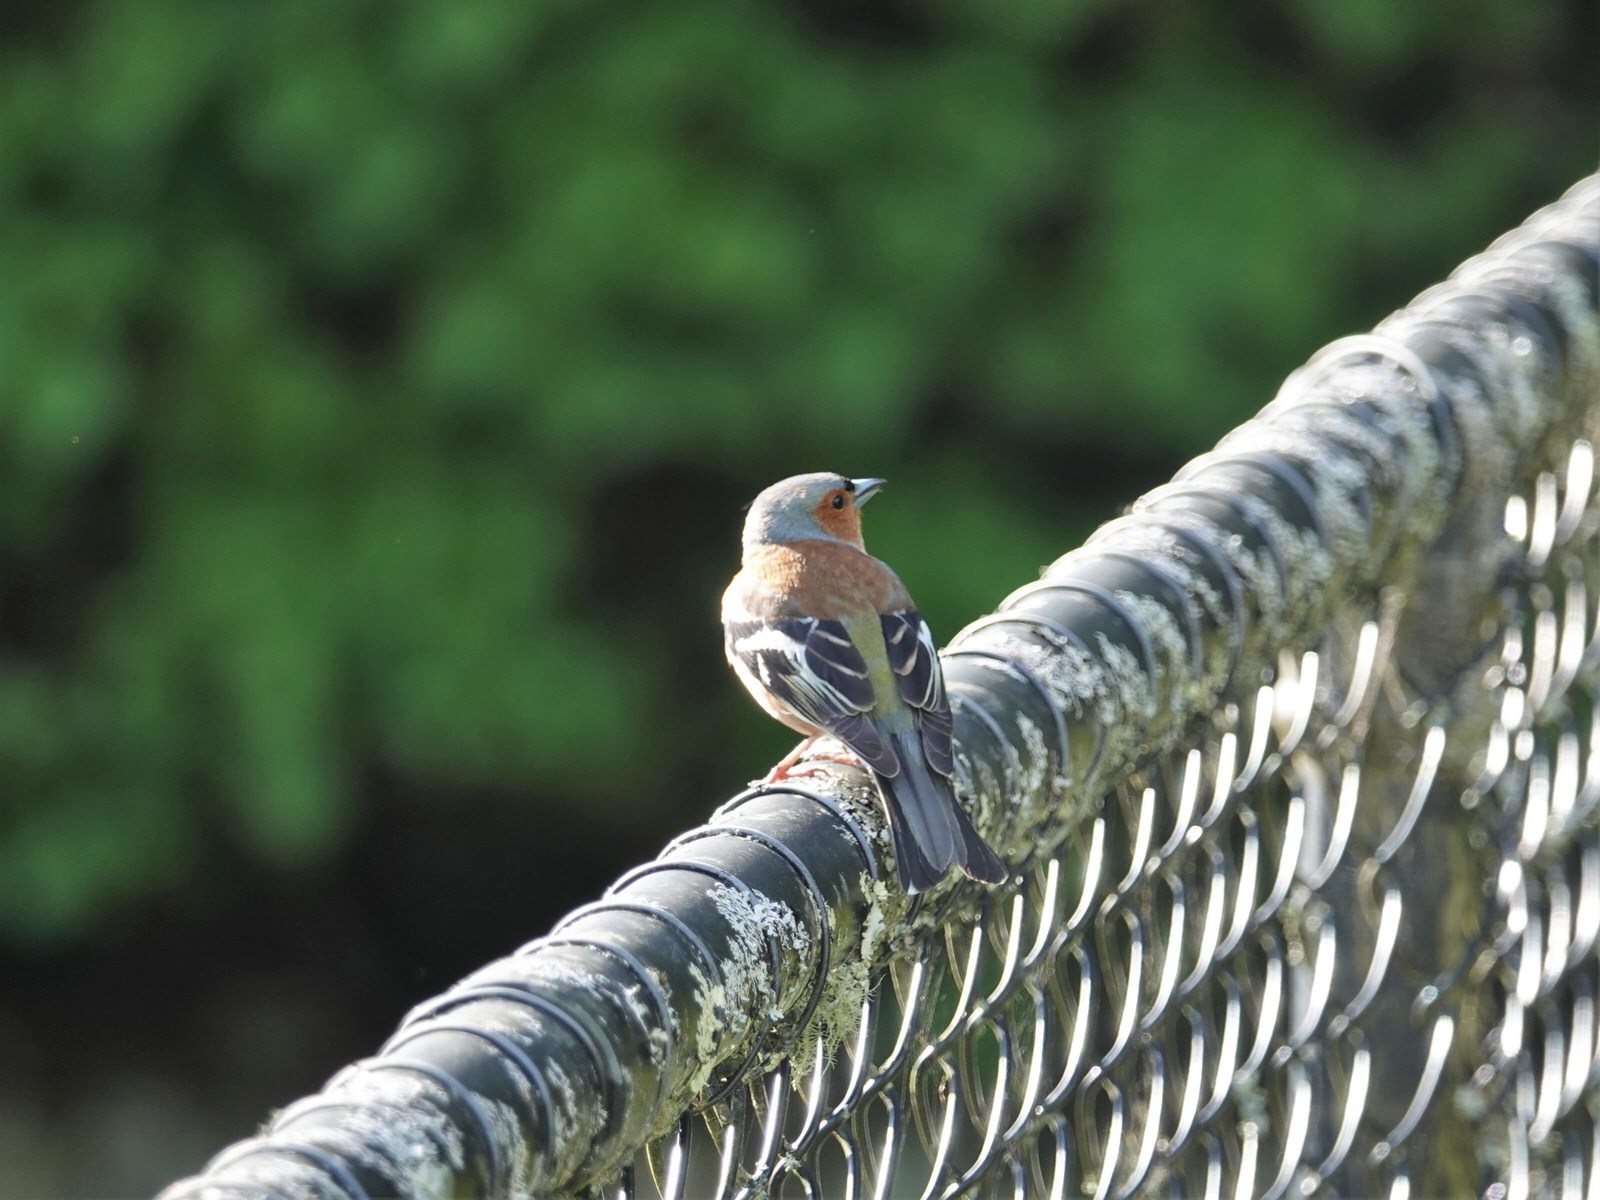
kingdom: Animalia
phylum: Chordata
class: Aves
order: Passeriformes
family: Fringillidae
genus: Fringilla
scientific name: Fringilla coelebs
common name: Common chaffinch
